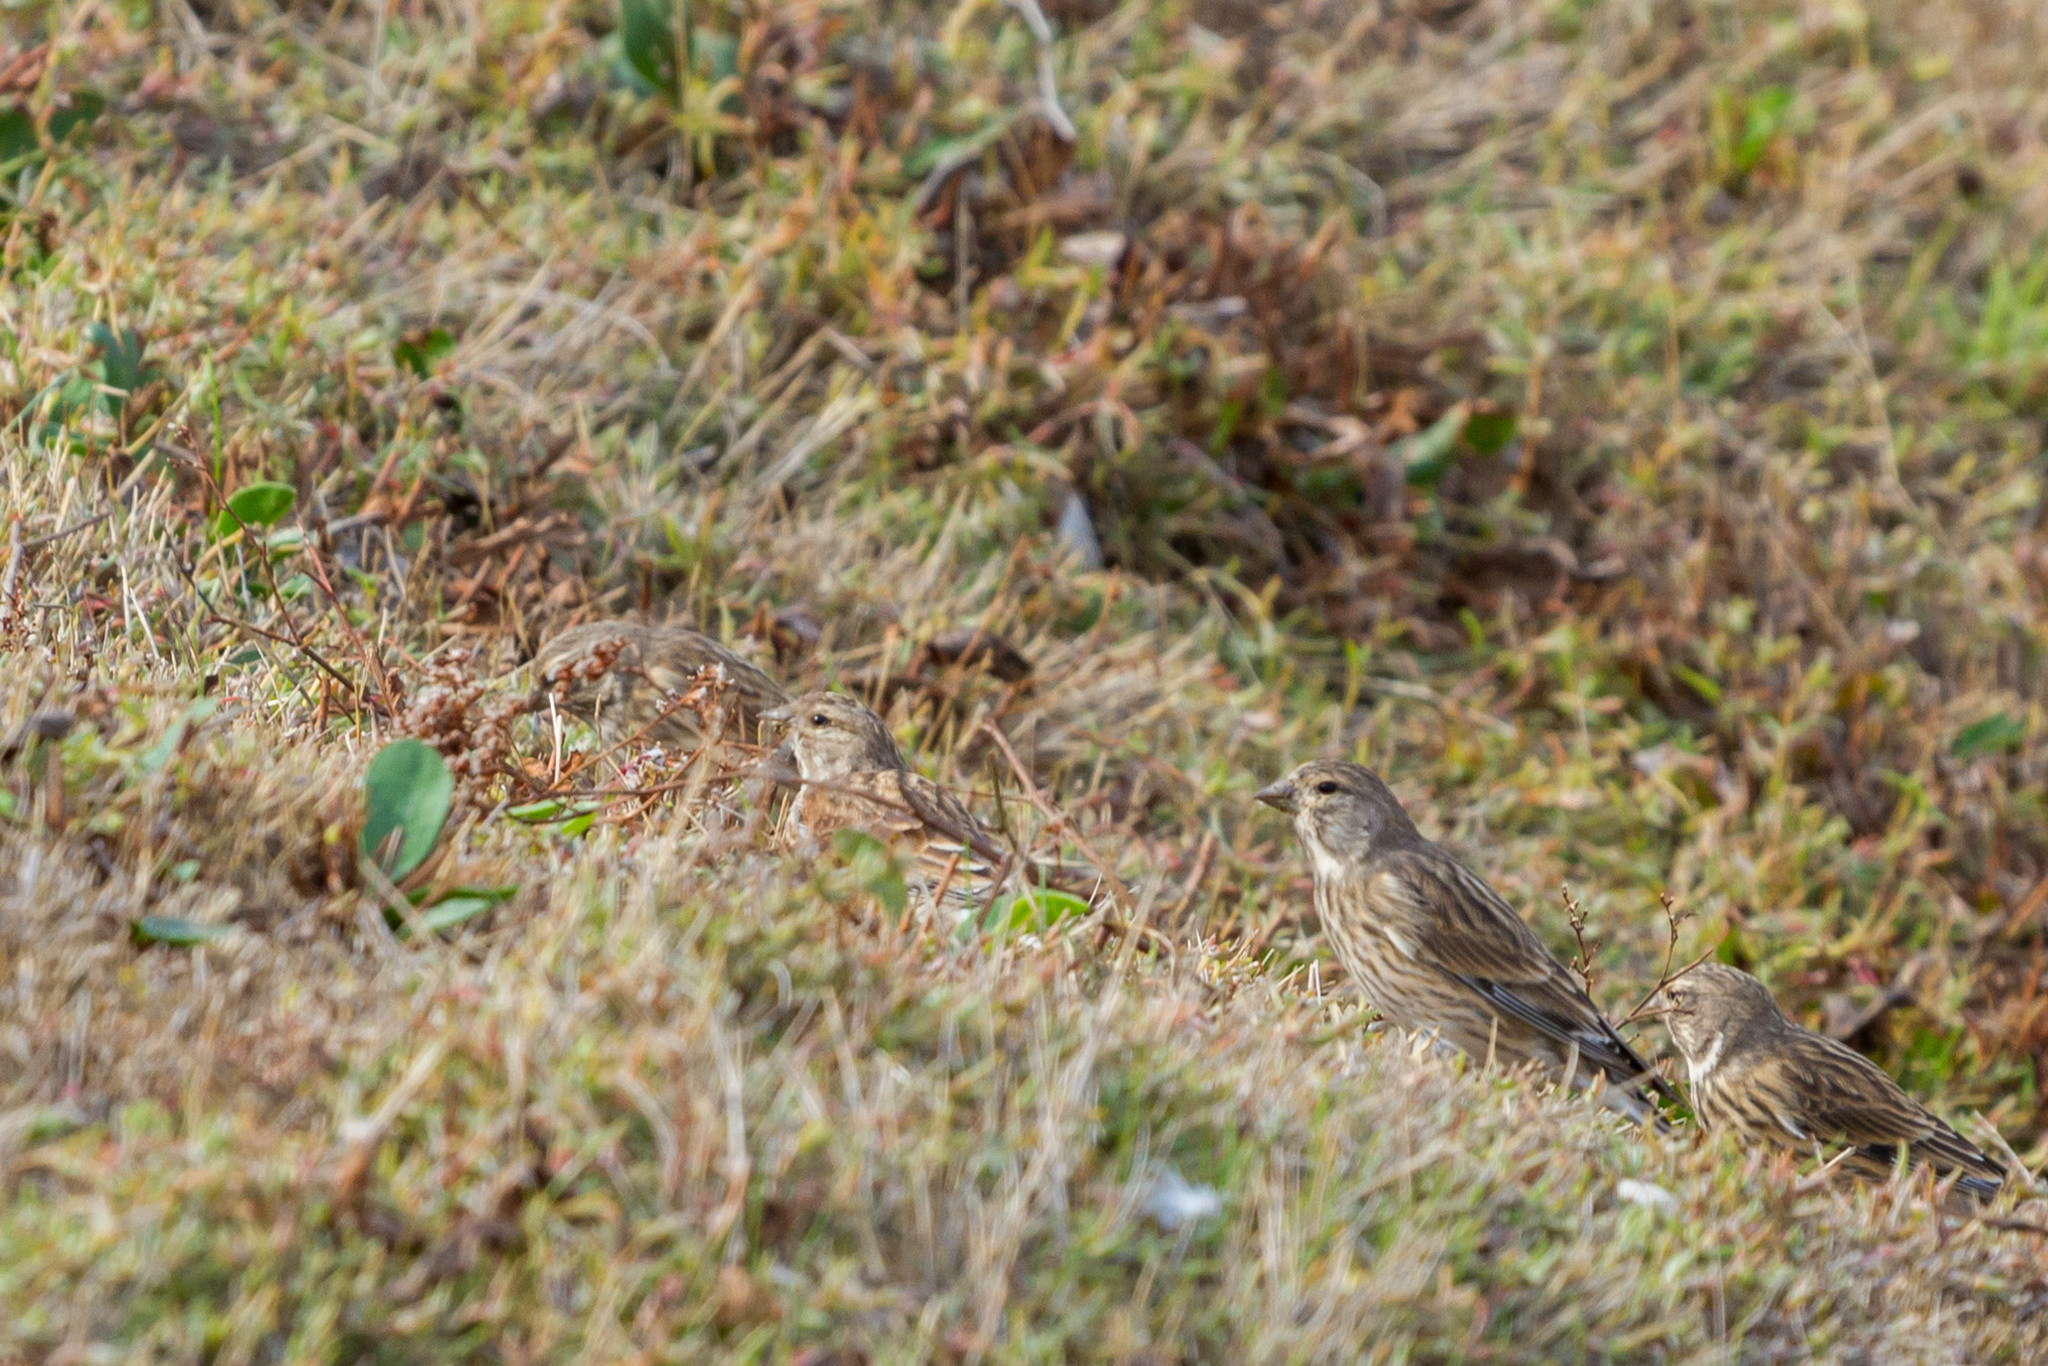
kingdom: Animalia
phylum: Chordata
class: Aves
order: Passeriformes
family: Fringillidae
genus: Linaria
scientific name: Linaria cannabina
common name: Common linnet
